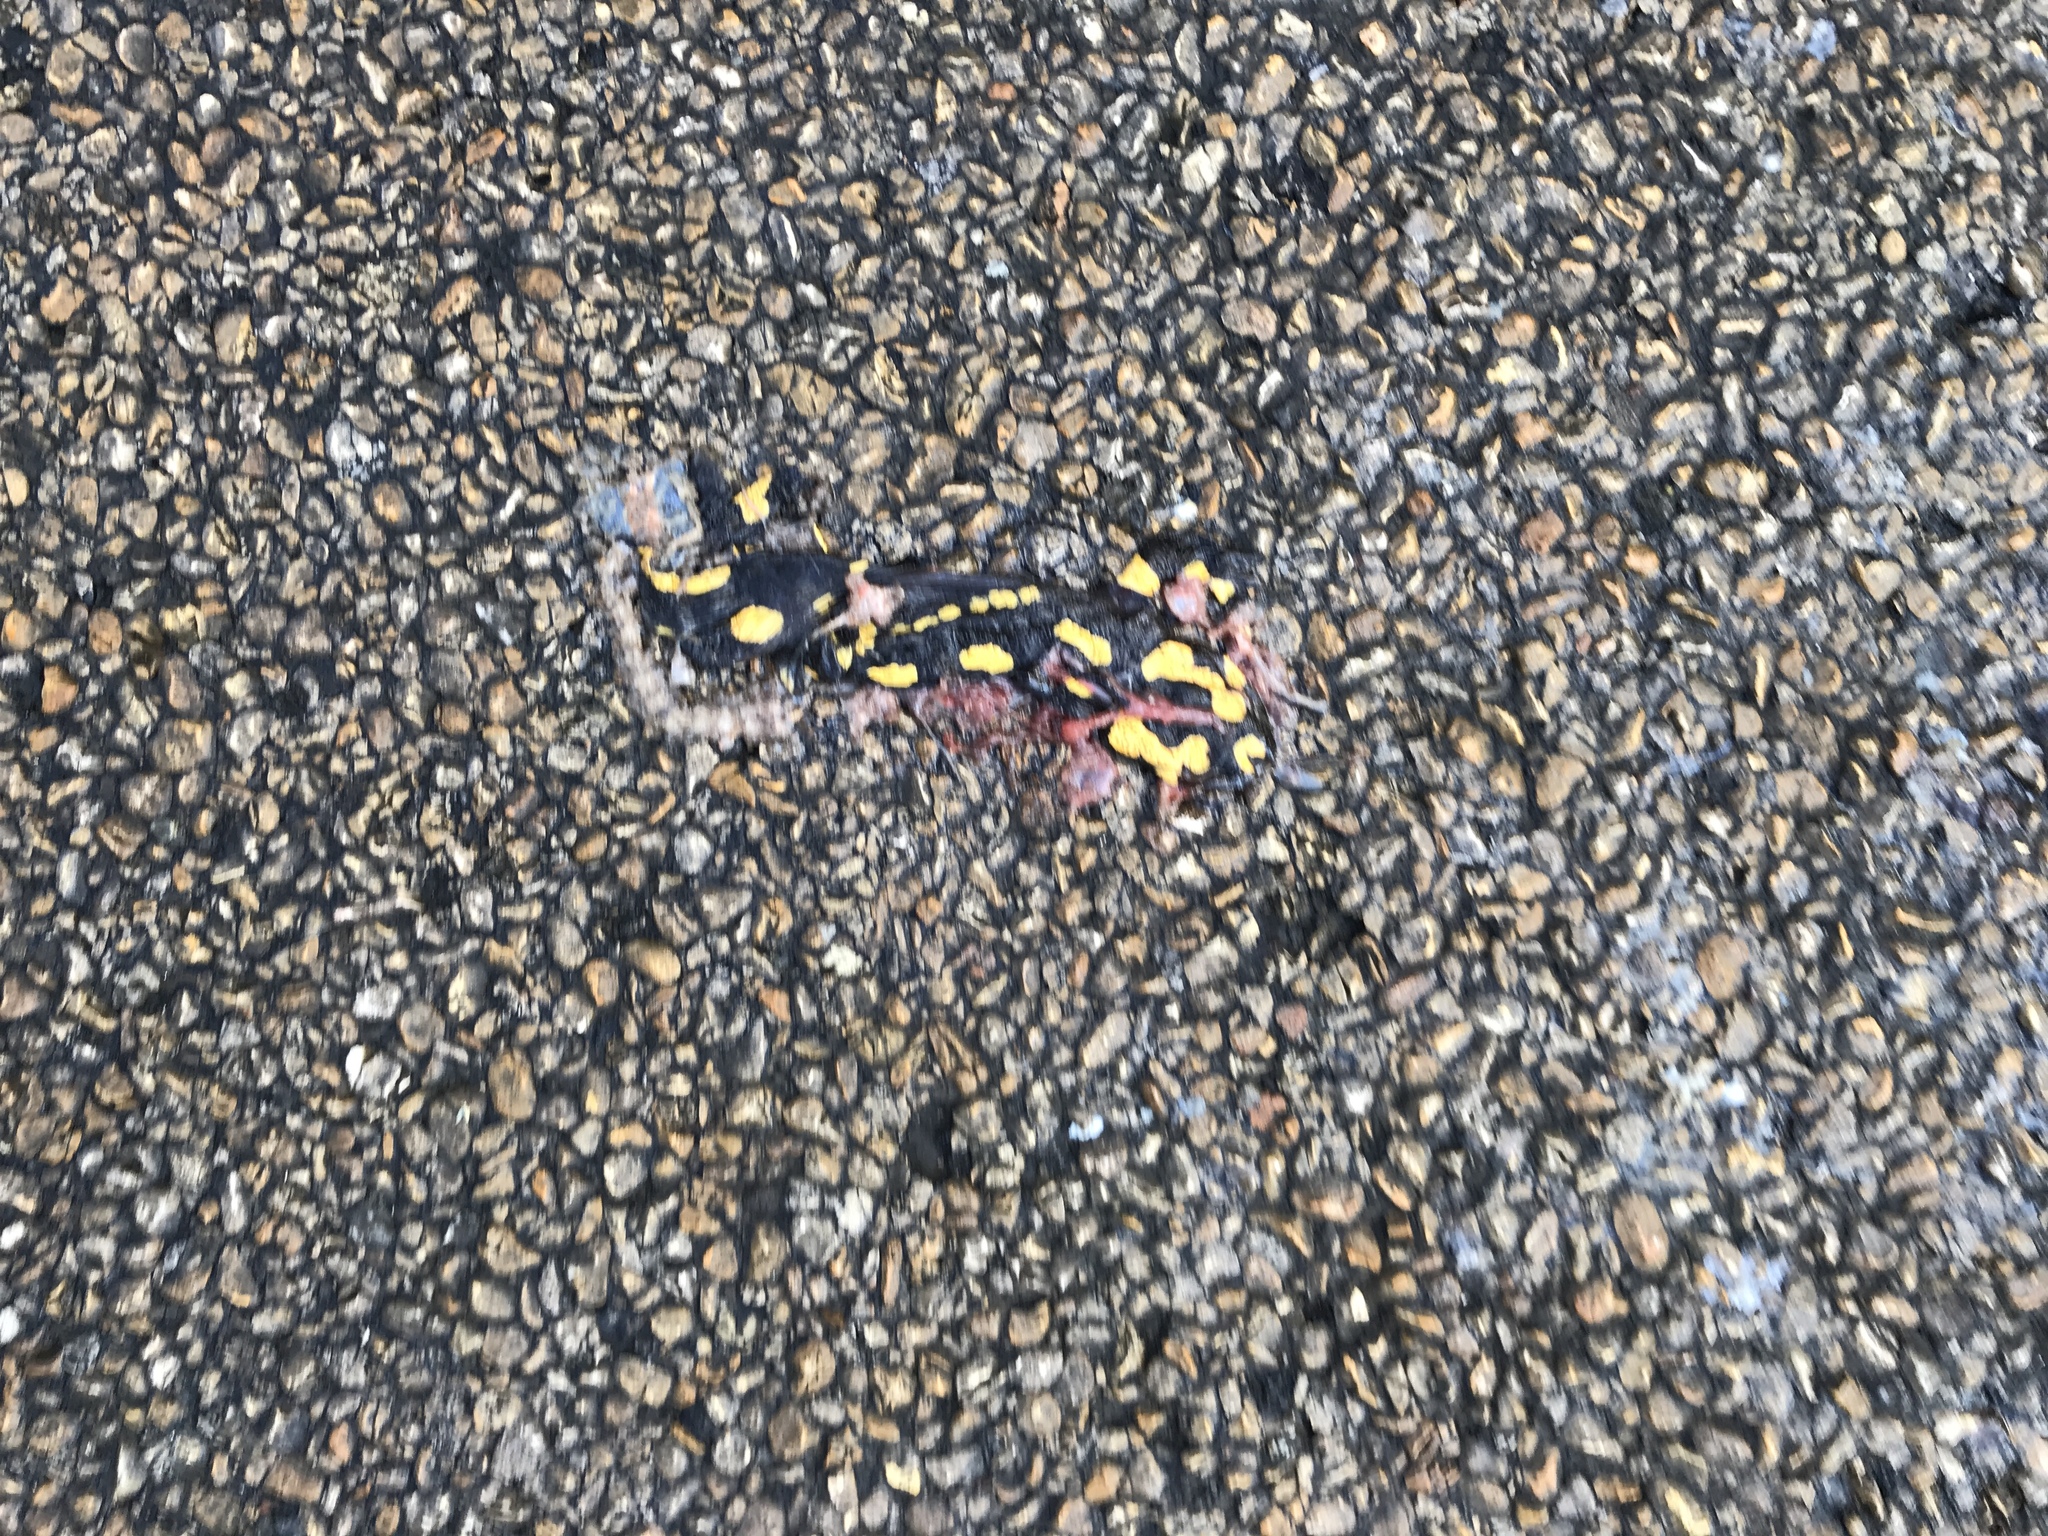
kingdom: Animalia
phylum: Chordata
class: Amphibia
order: Caudata
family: Salamandridae
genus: Salamandra
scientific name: Salamandra salamandra
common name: Fire salamander
